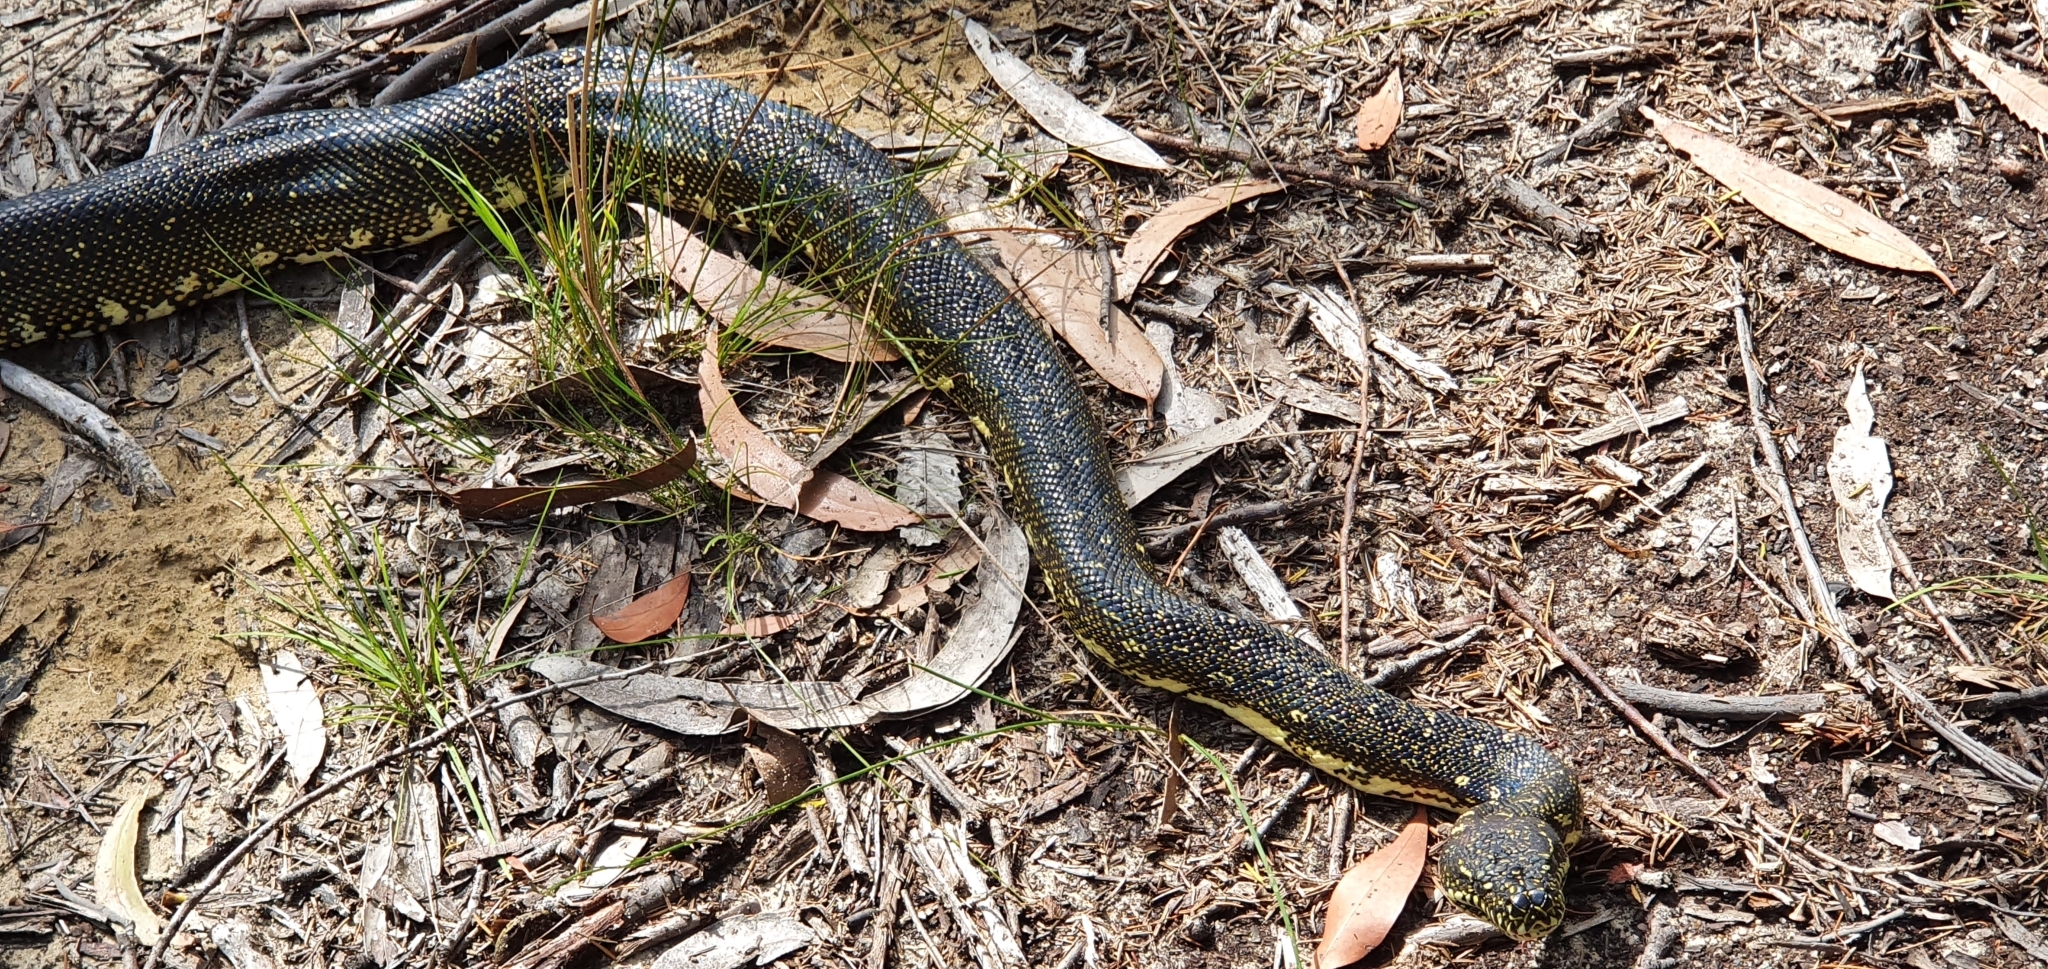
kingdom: Animalia
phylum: Chordata
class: Squamata
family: Pythonidae
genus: Morelia
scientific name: Morelia spilota
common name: Carpet python
